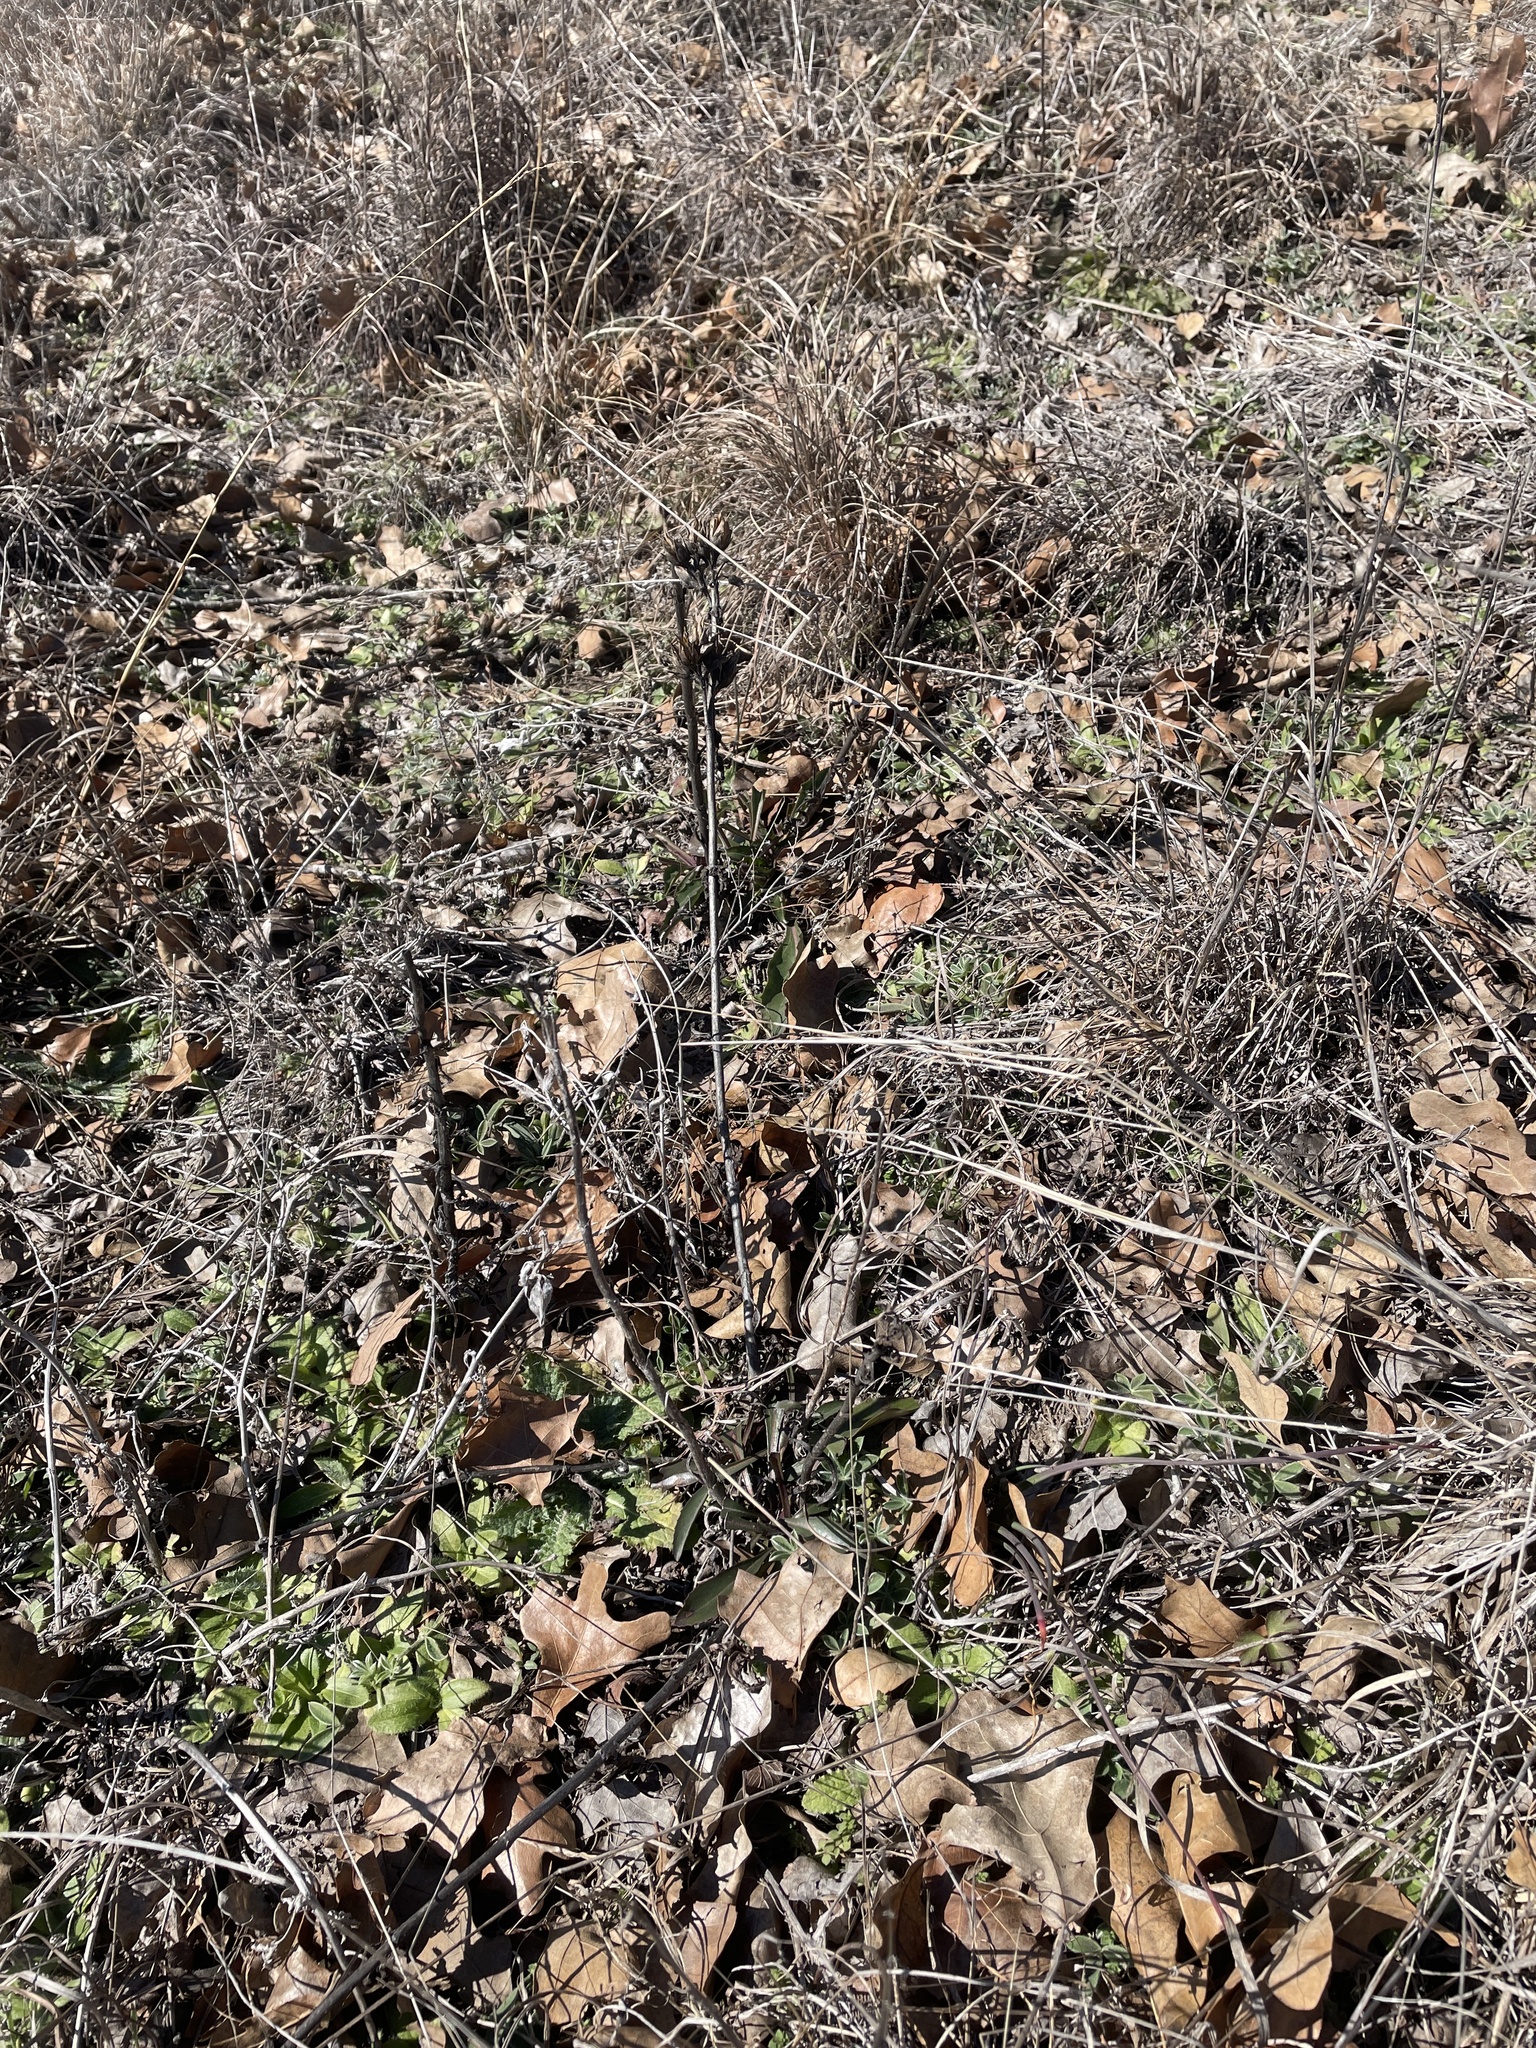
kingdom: Plantae
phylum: Tracheophyta
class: Magnoliopsida
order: Lamiales
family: Plantaginaceae
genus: Penstemon
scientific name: Penstemon cobaea
